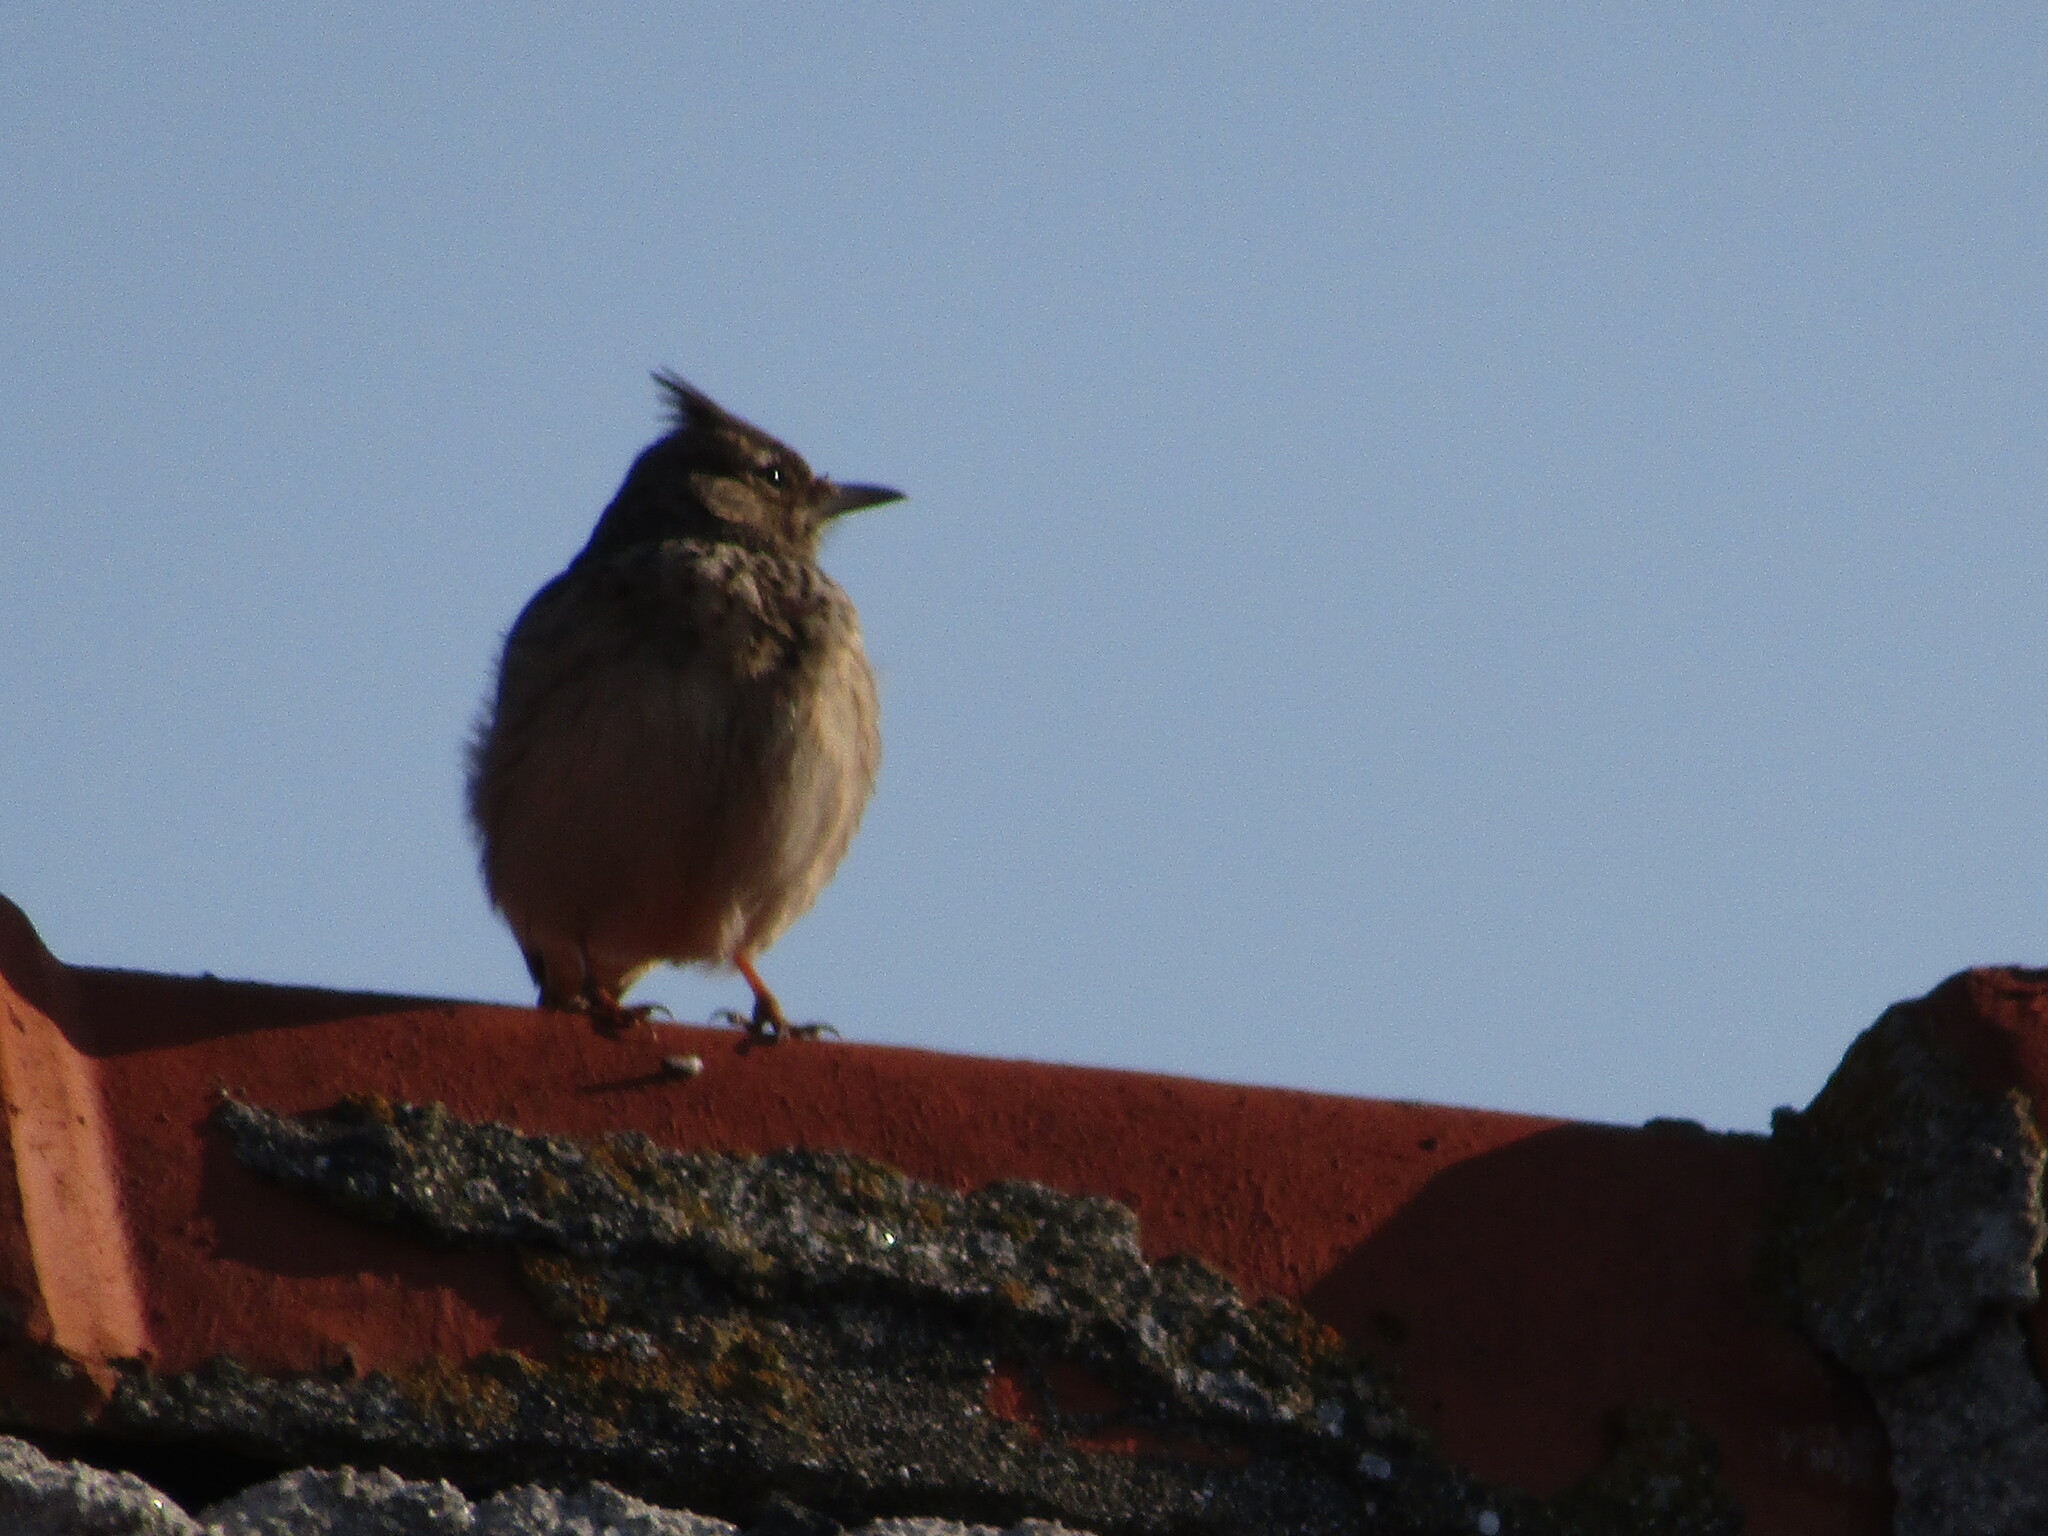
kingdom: Animalia
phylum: Chordata
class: Aves
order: Passeriformes
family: Alaudidae
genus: Galerida
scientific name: Galerida cristata
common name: Crested lark
